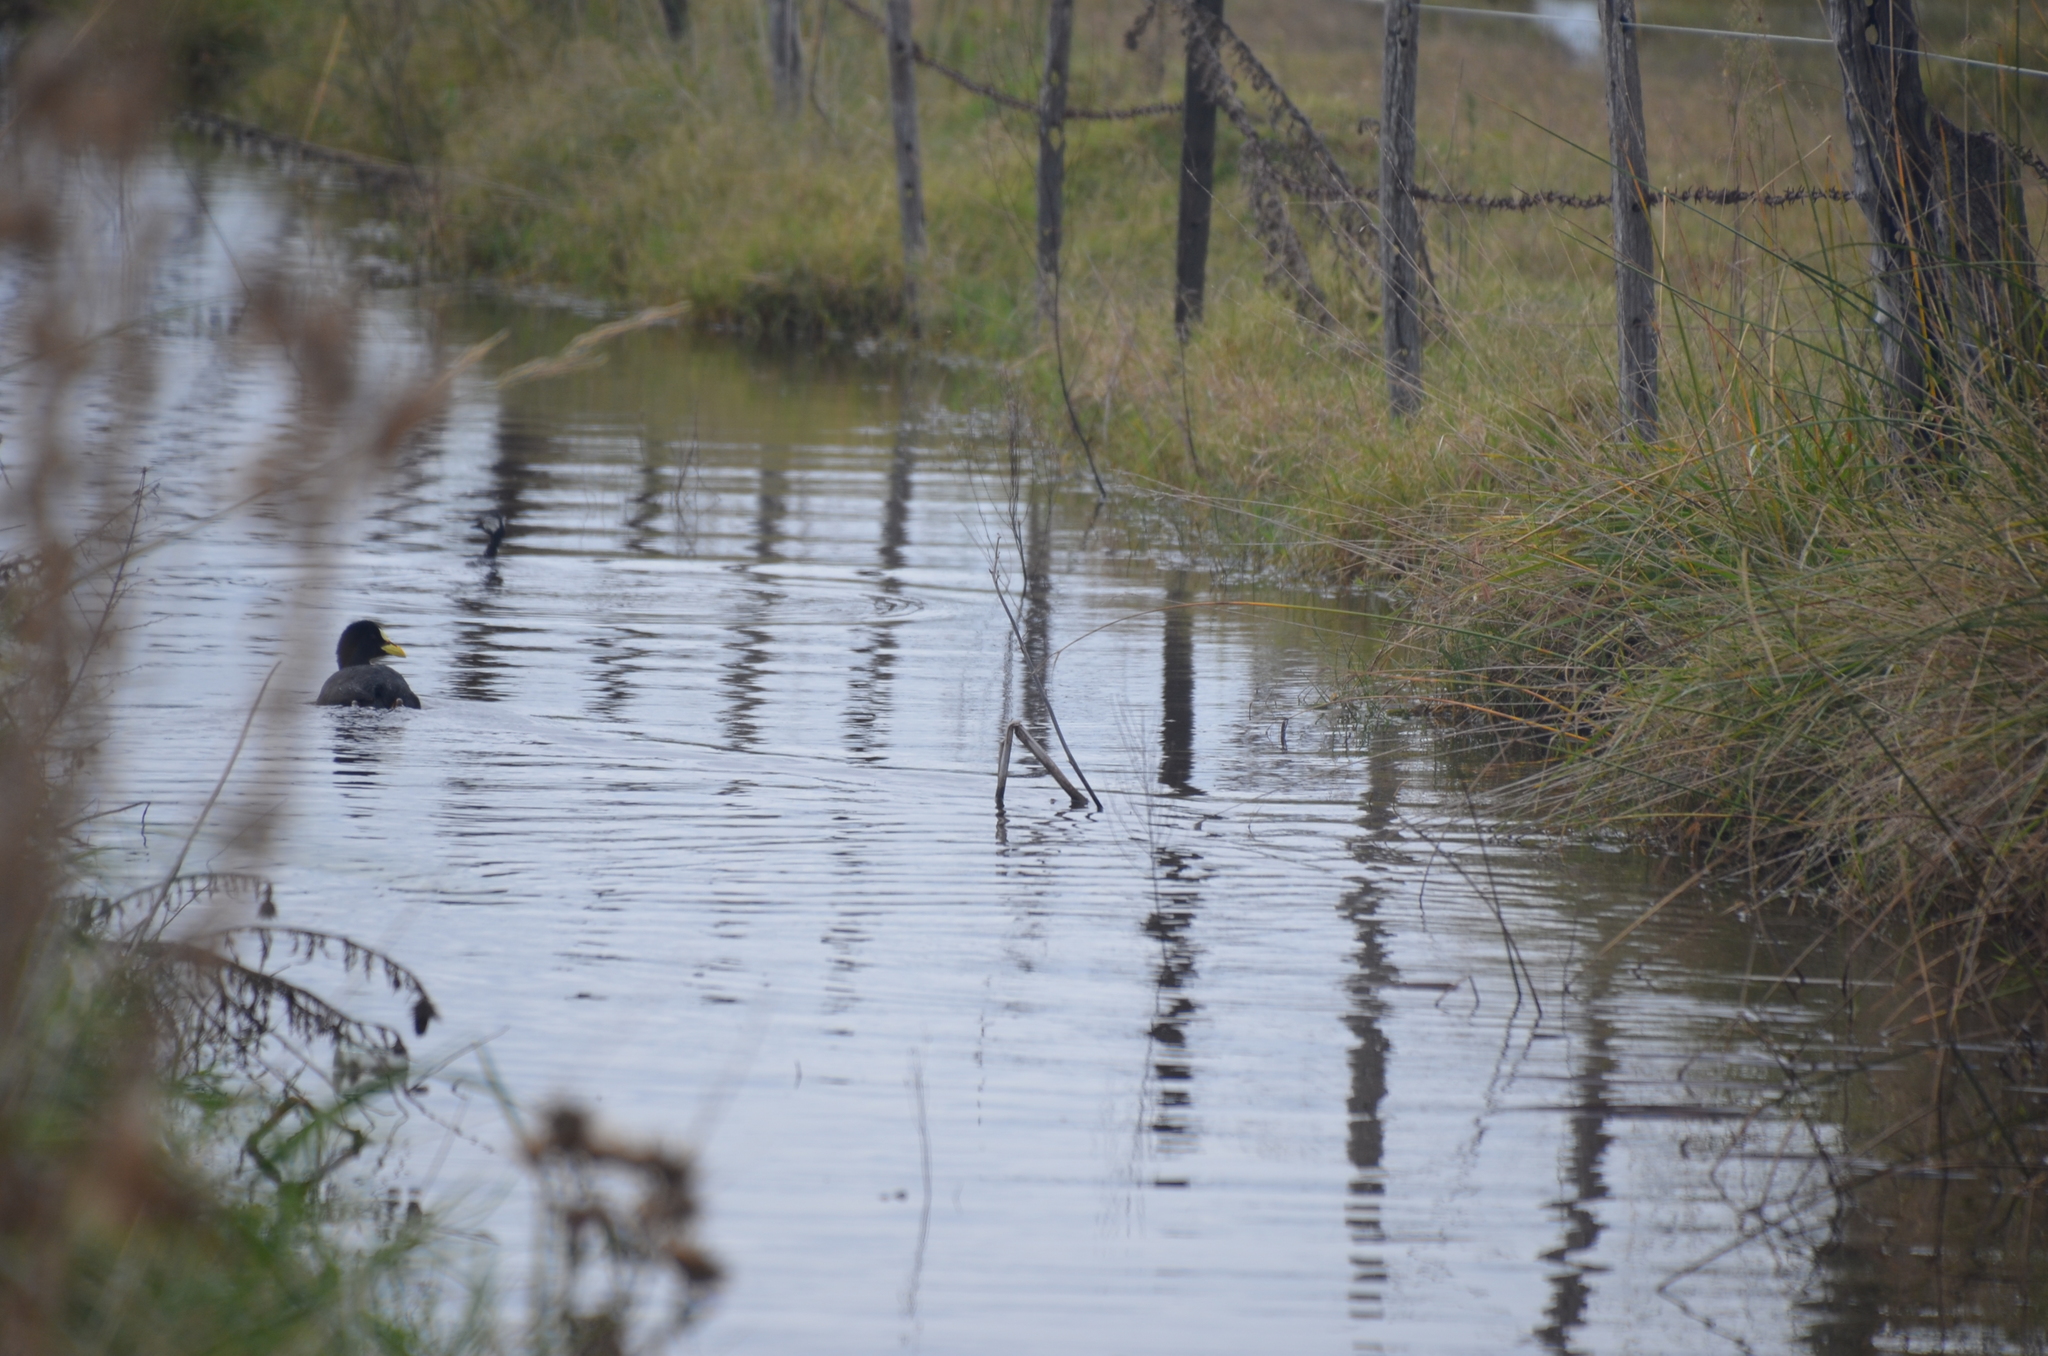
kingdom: Animalia
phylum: Chordata
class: Aves
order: Gruiformes
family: Rallidae
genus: Fulica
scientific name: Fulica armillata
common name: Red-gartered coot
